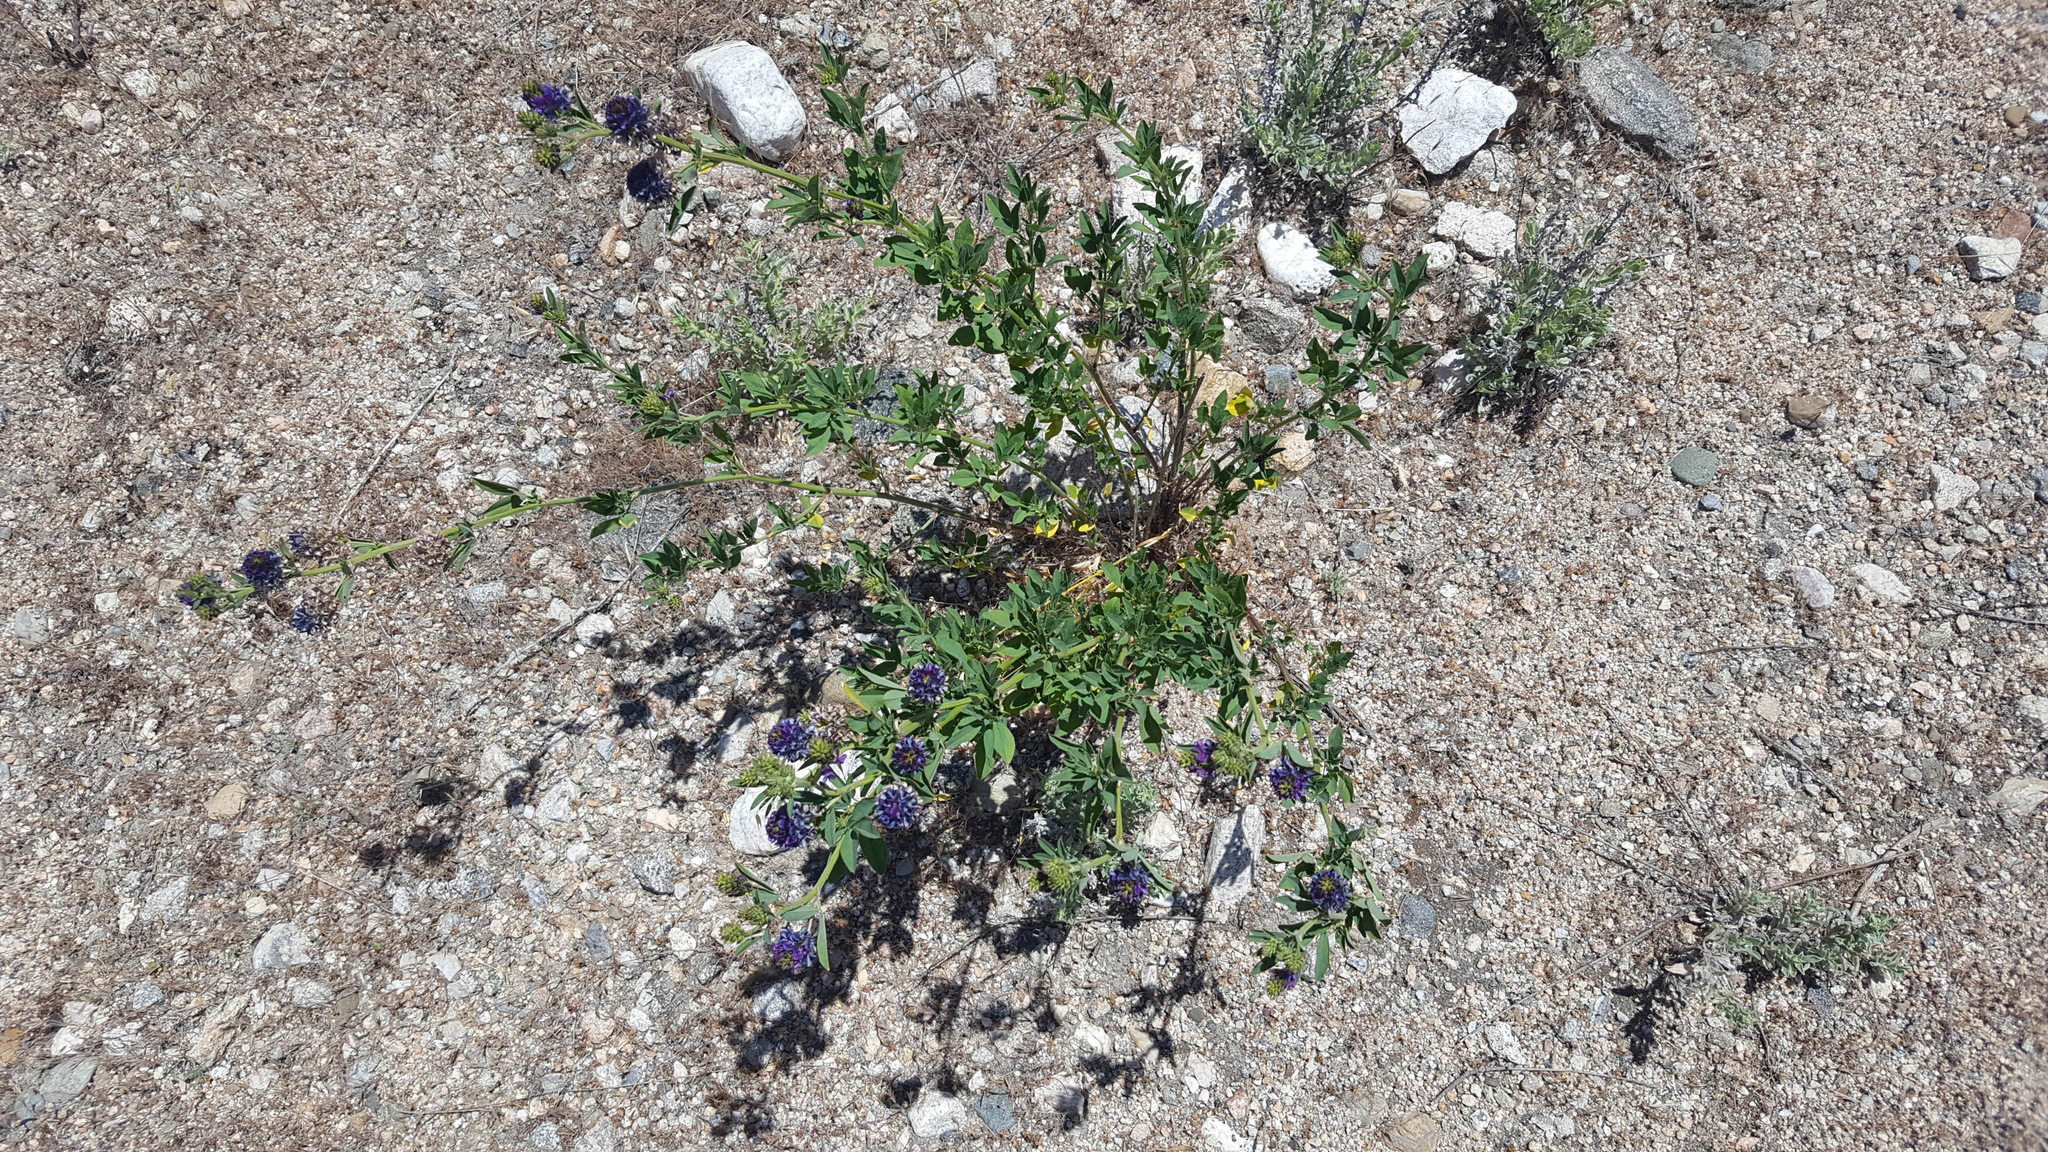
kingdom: Plantae
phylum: Tracheophyta
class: Magnoliopsida
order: Fabales
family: Fabaceae
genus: Medicago
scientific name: Medicago sativa
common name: Alfalfa
